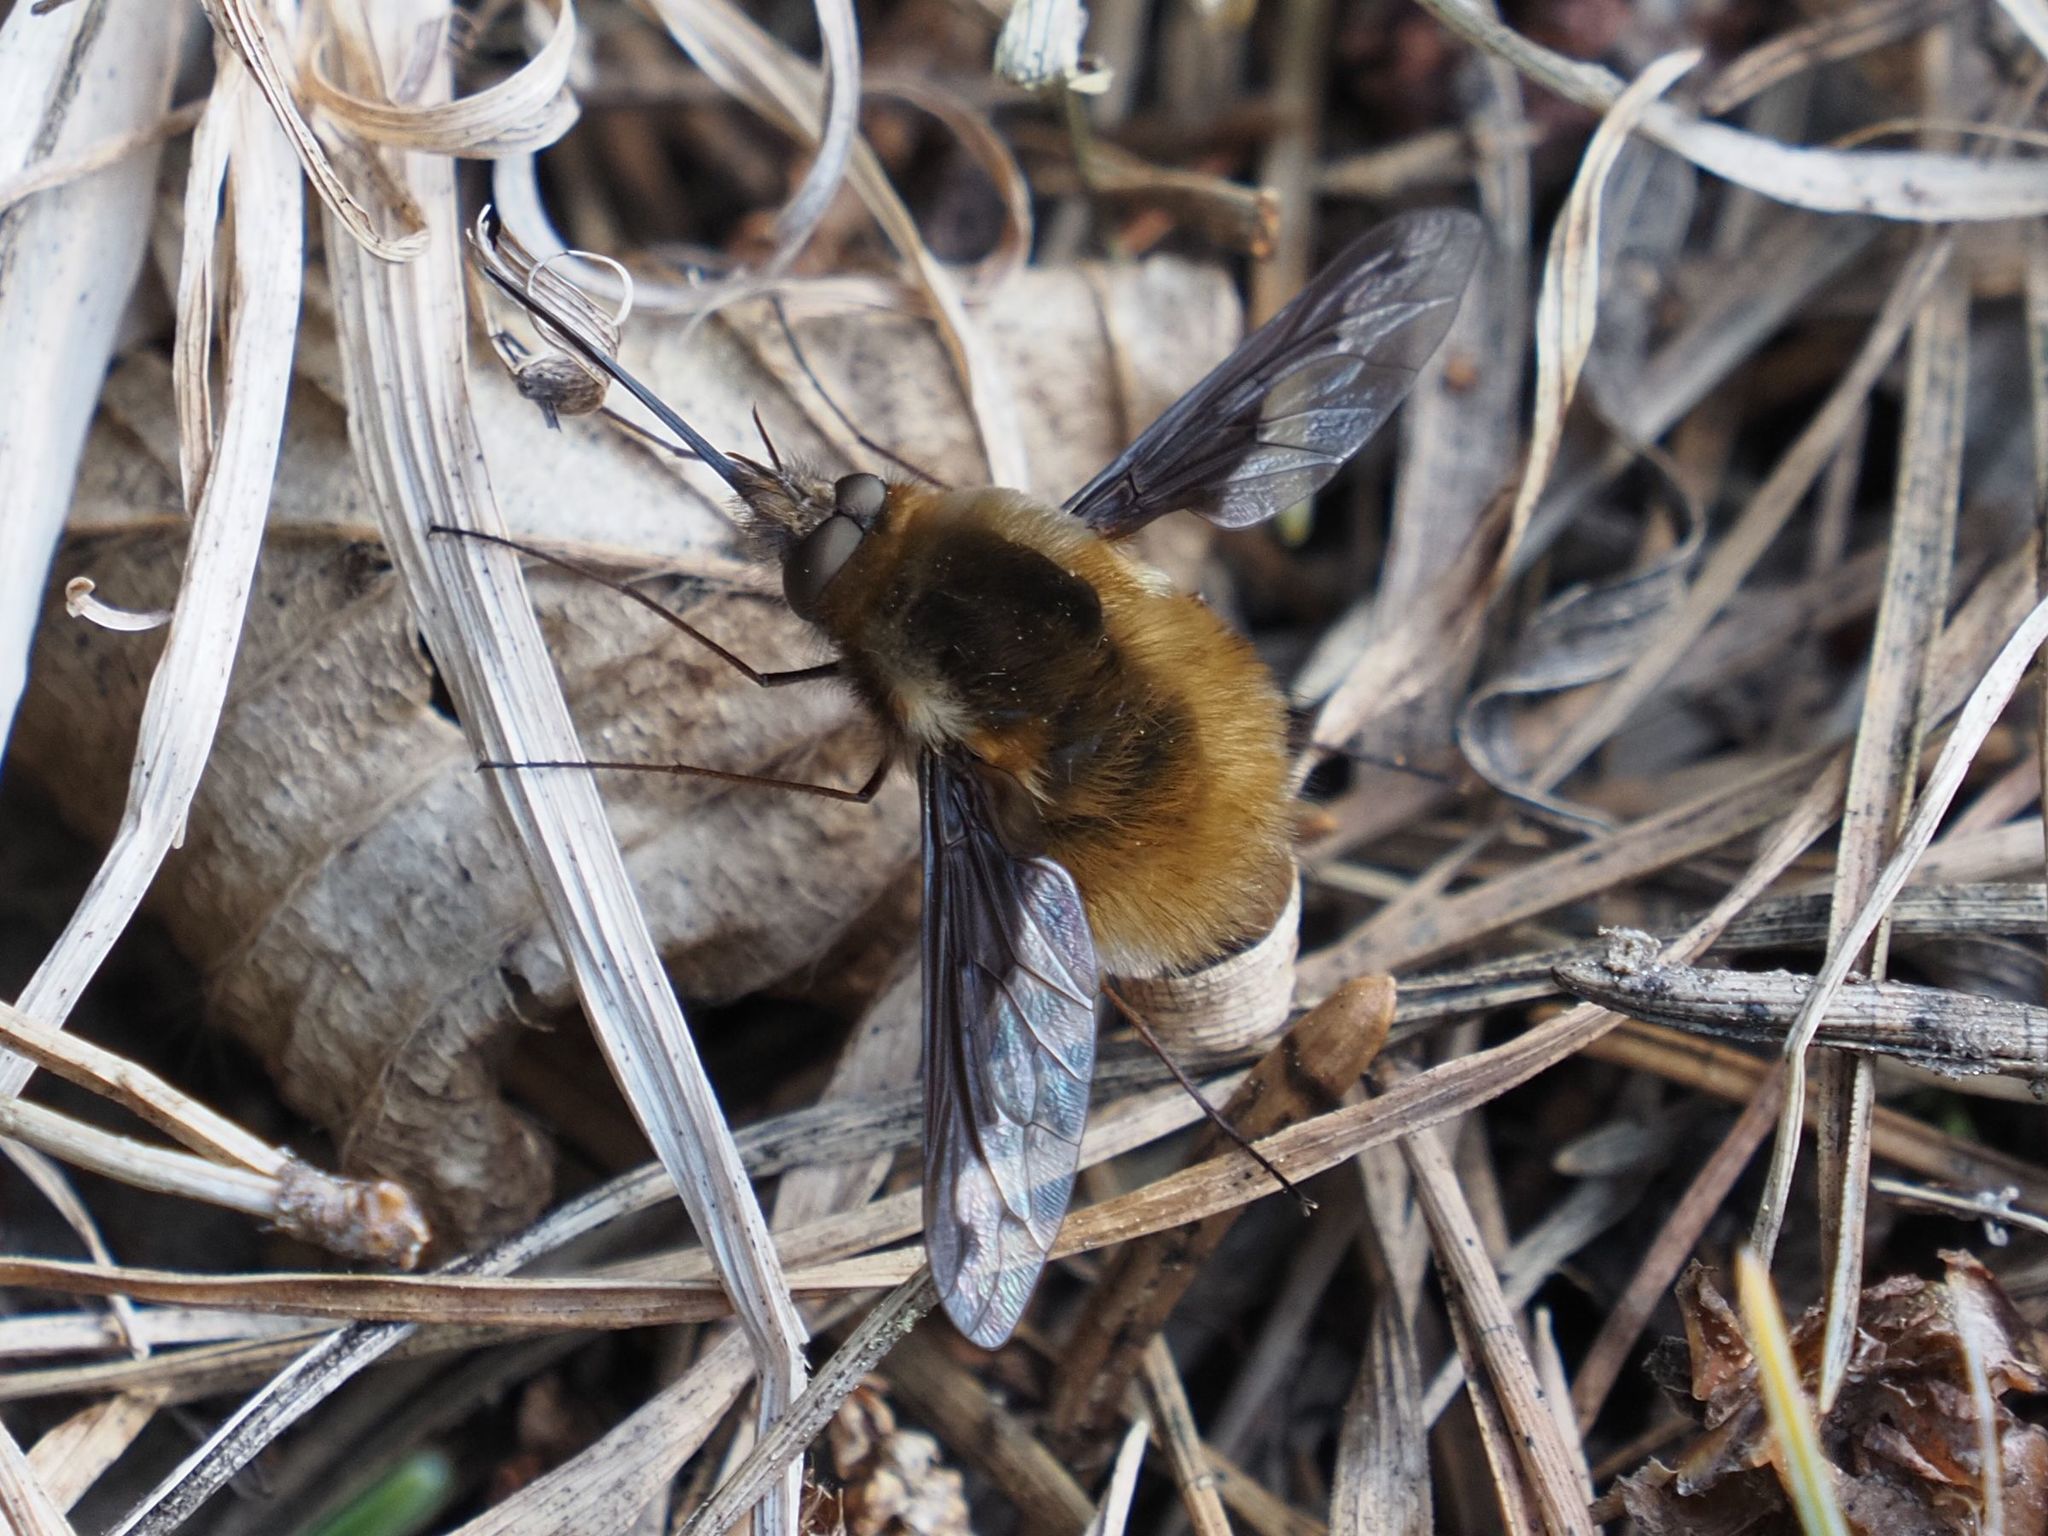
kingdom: Animalia
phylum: Arthropoda
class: Insecta
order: Diptera
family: Bombyliidae
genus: Bombylius
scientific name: Bombylius major
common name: Bee fly
